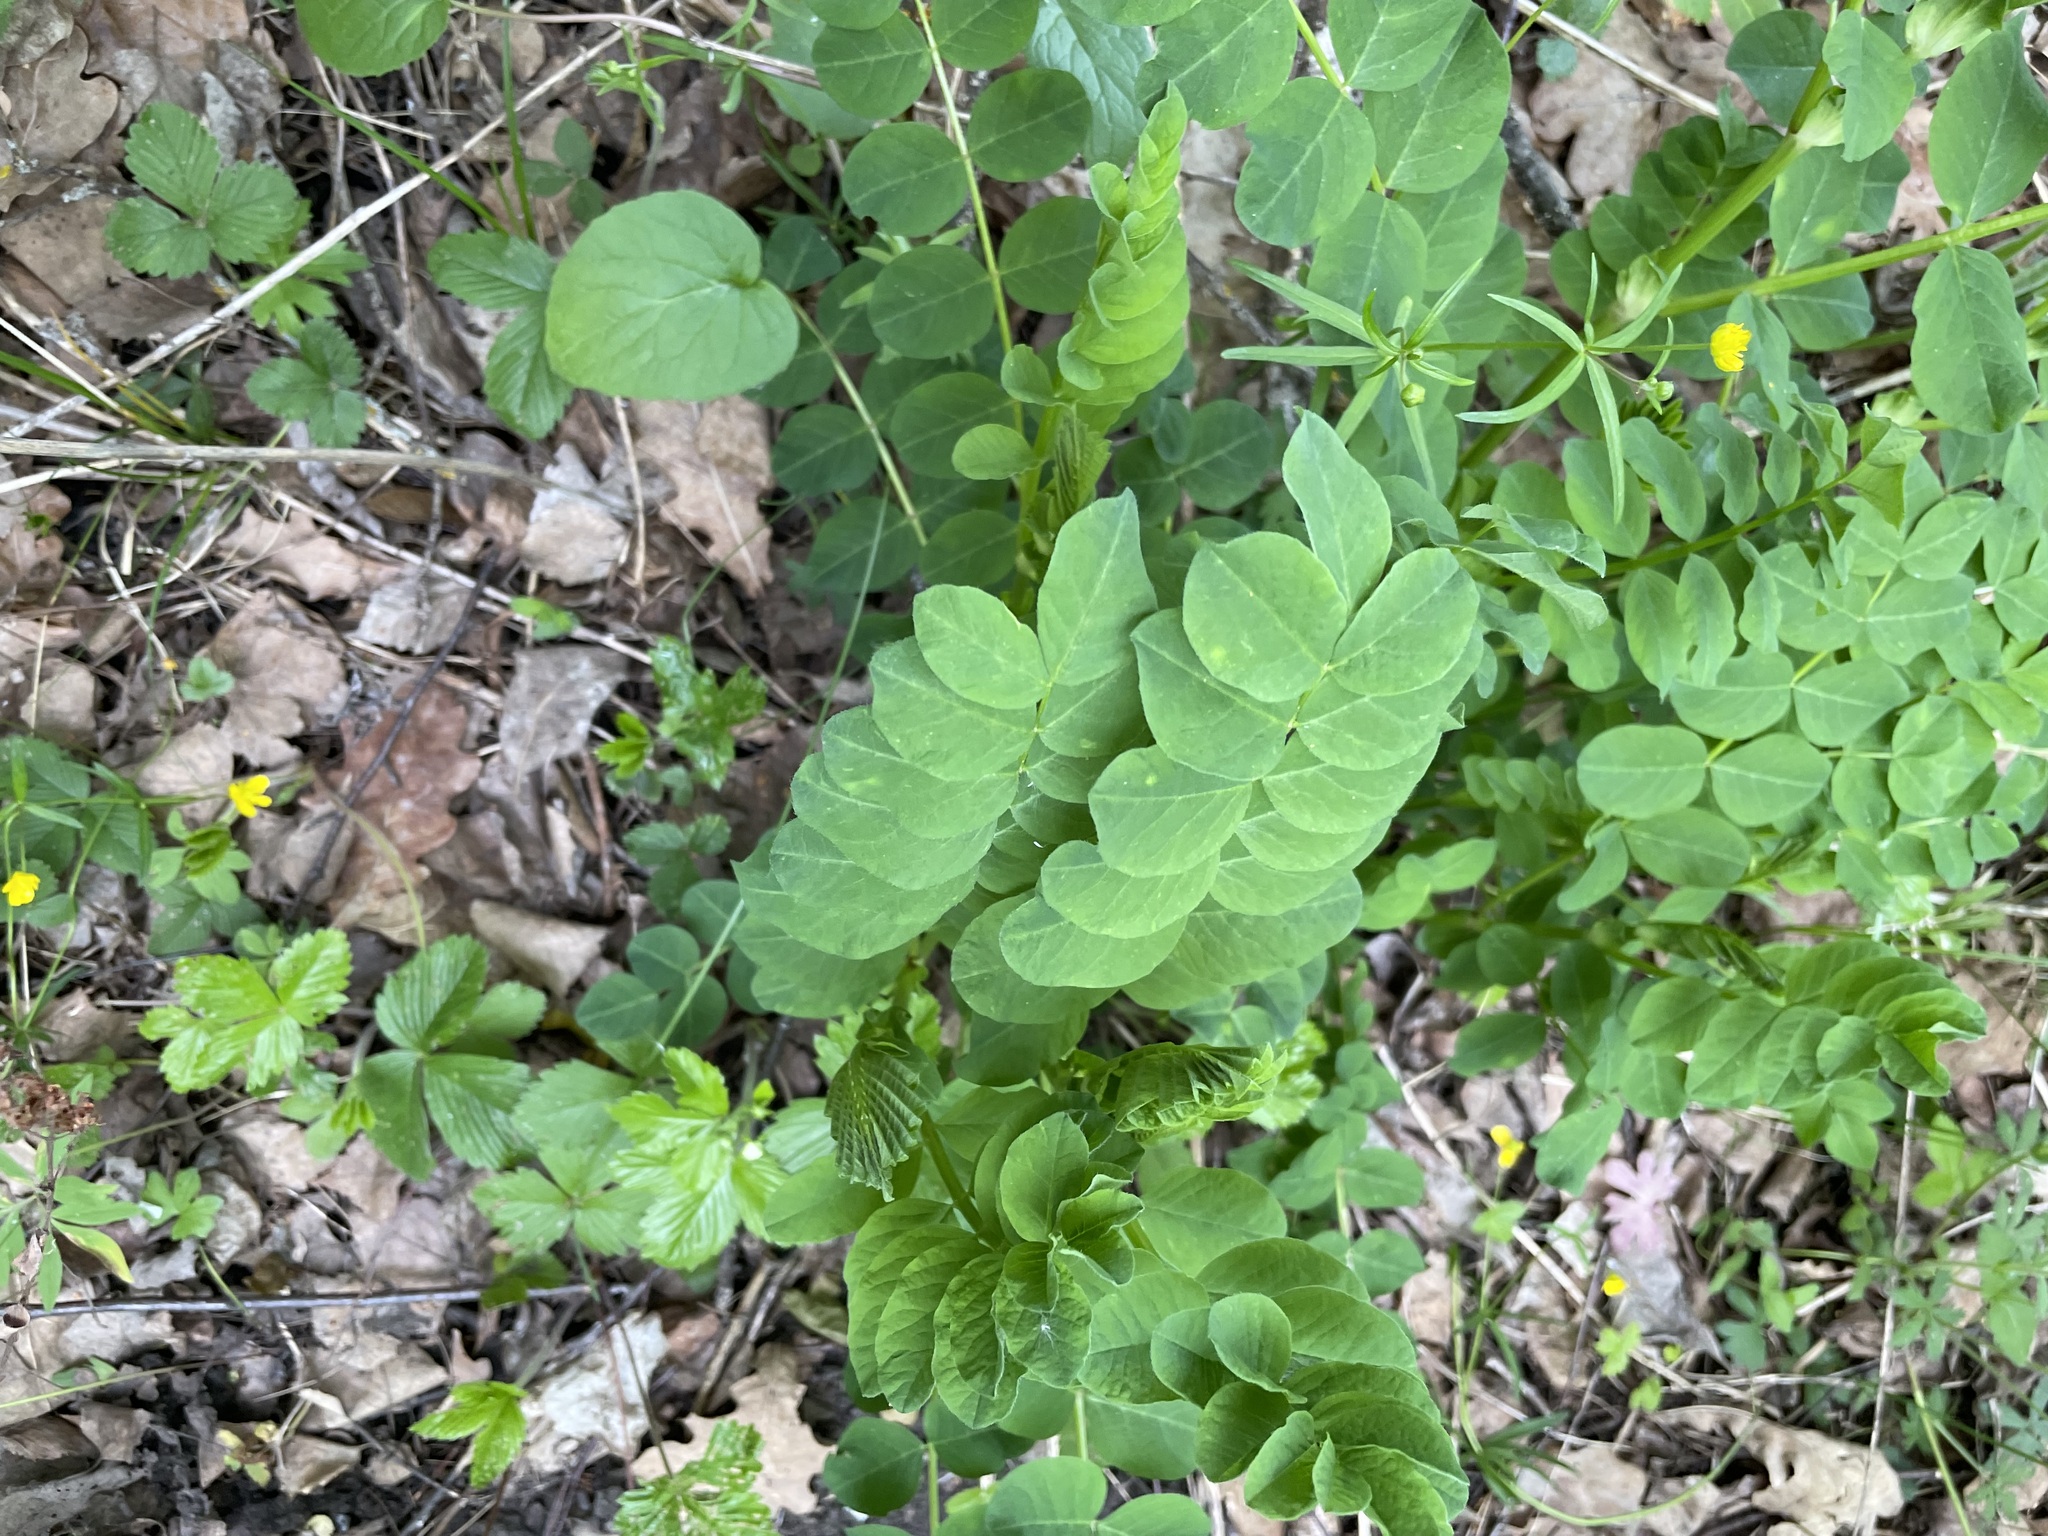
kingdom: Plantae
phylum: Tracheophyta
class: Magnoliopsida
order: Fabales
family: Fabaceae
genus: Astragalus
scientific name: Astragalus glycyphyllos
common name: Wild liquorice
